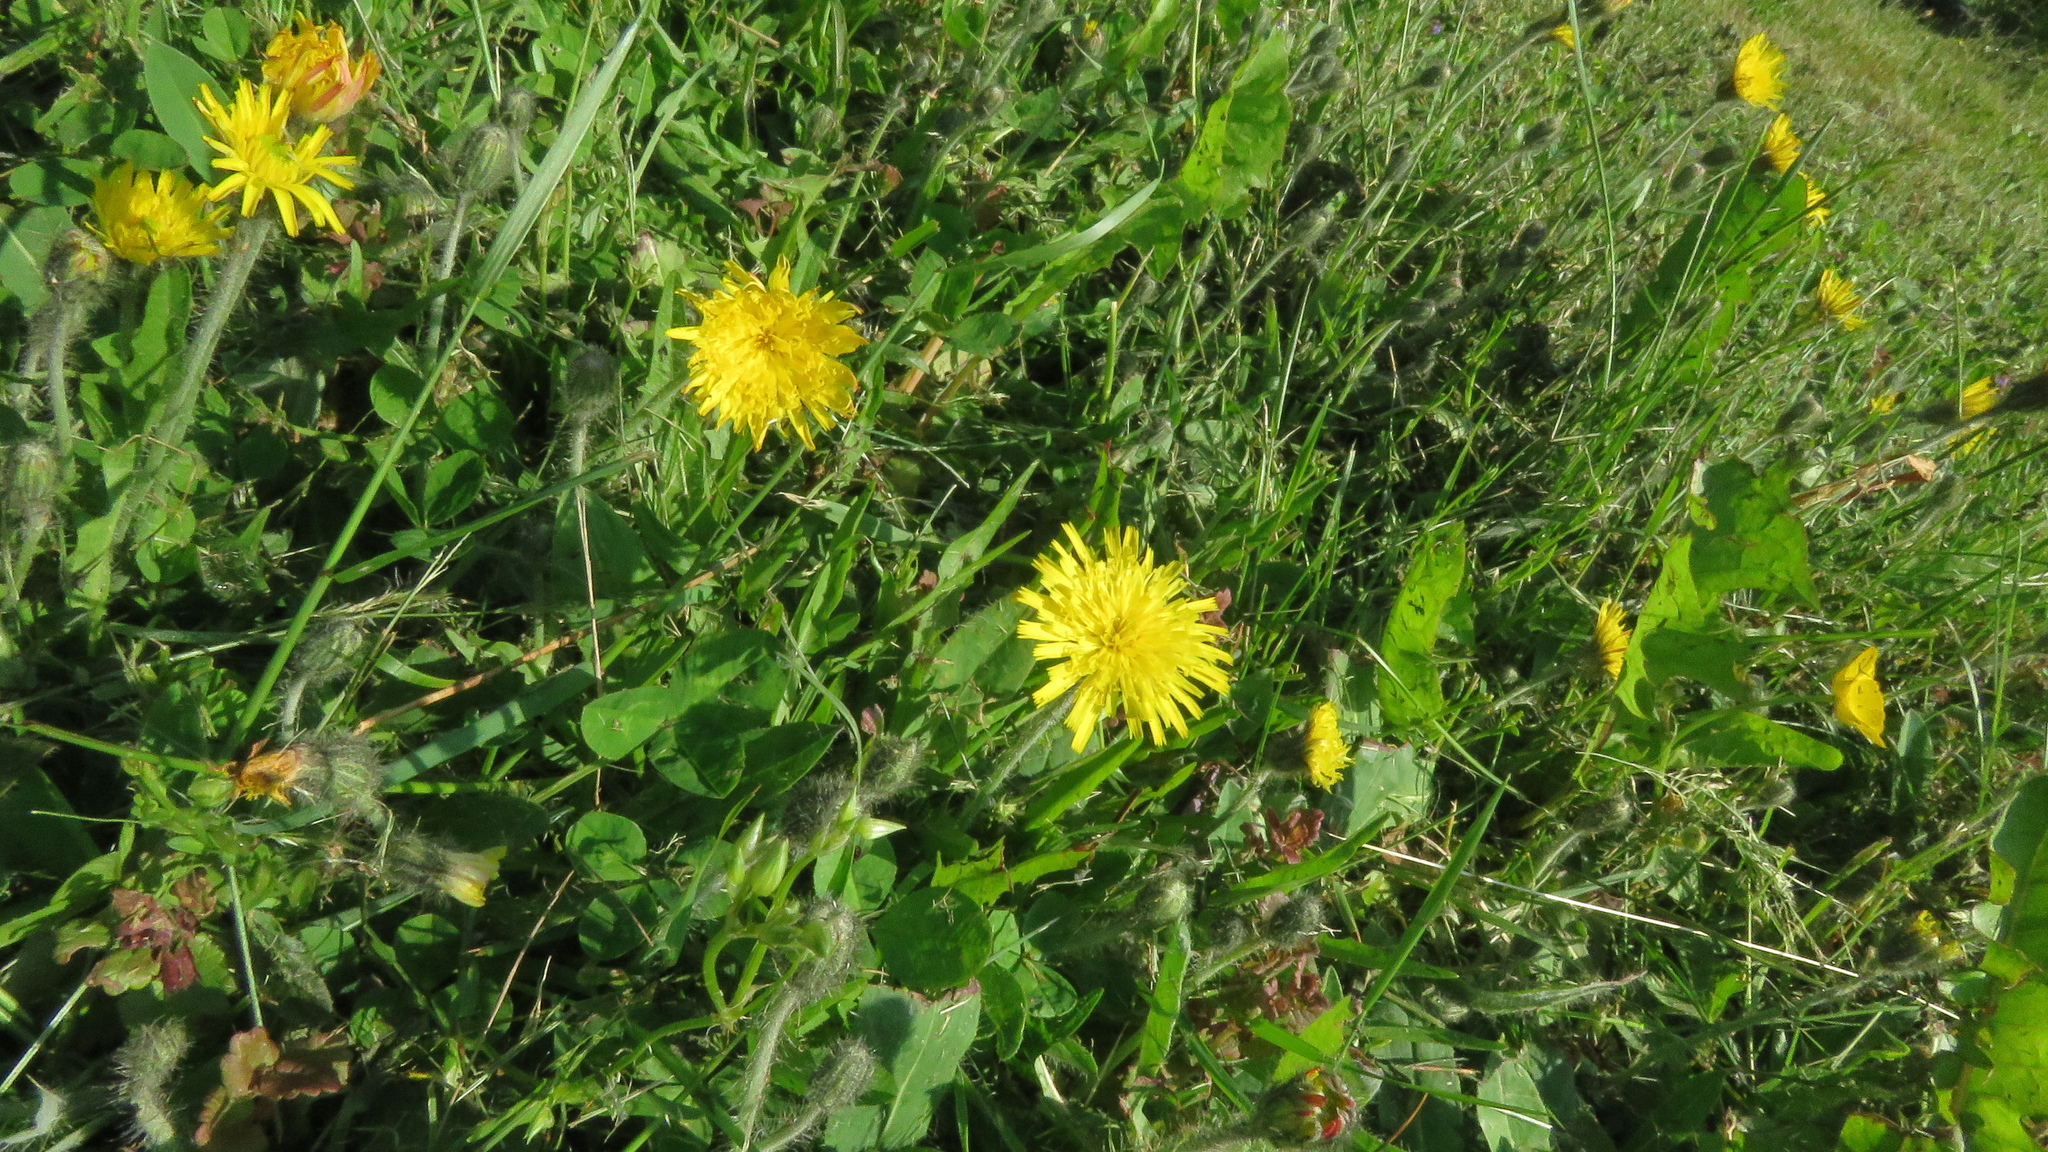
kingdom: Plantae
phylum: Tracheophyta
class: Magnoliopsida
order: Asterales
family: Asteraceae
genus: Pilosella
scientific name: Pilosella caespitosa
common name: Yellow fox-and-cubs
